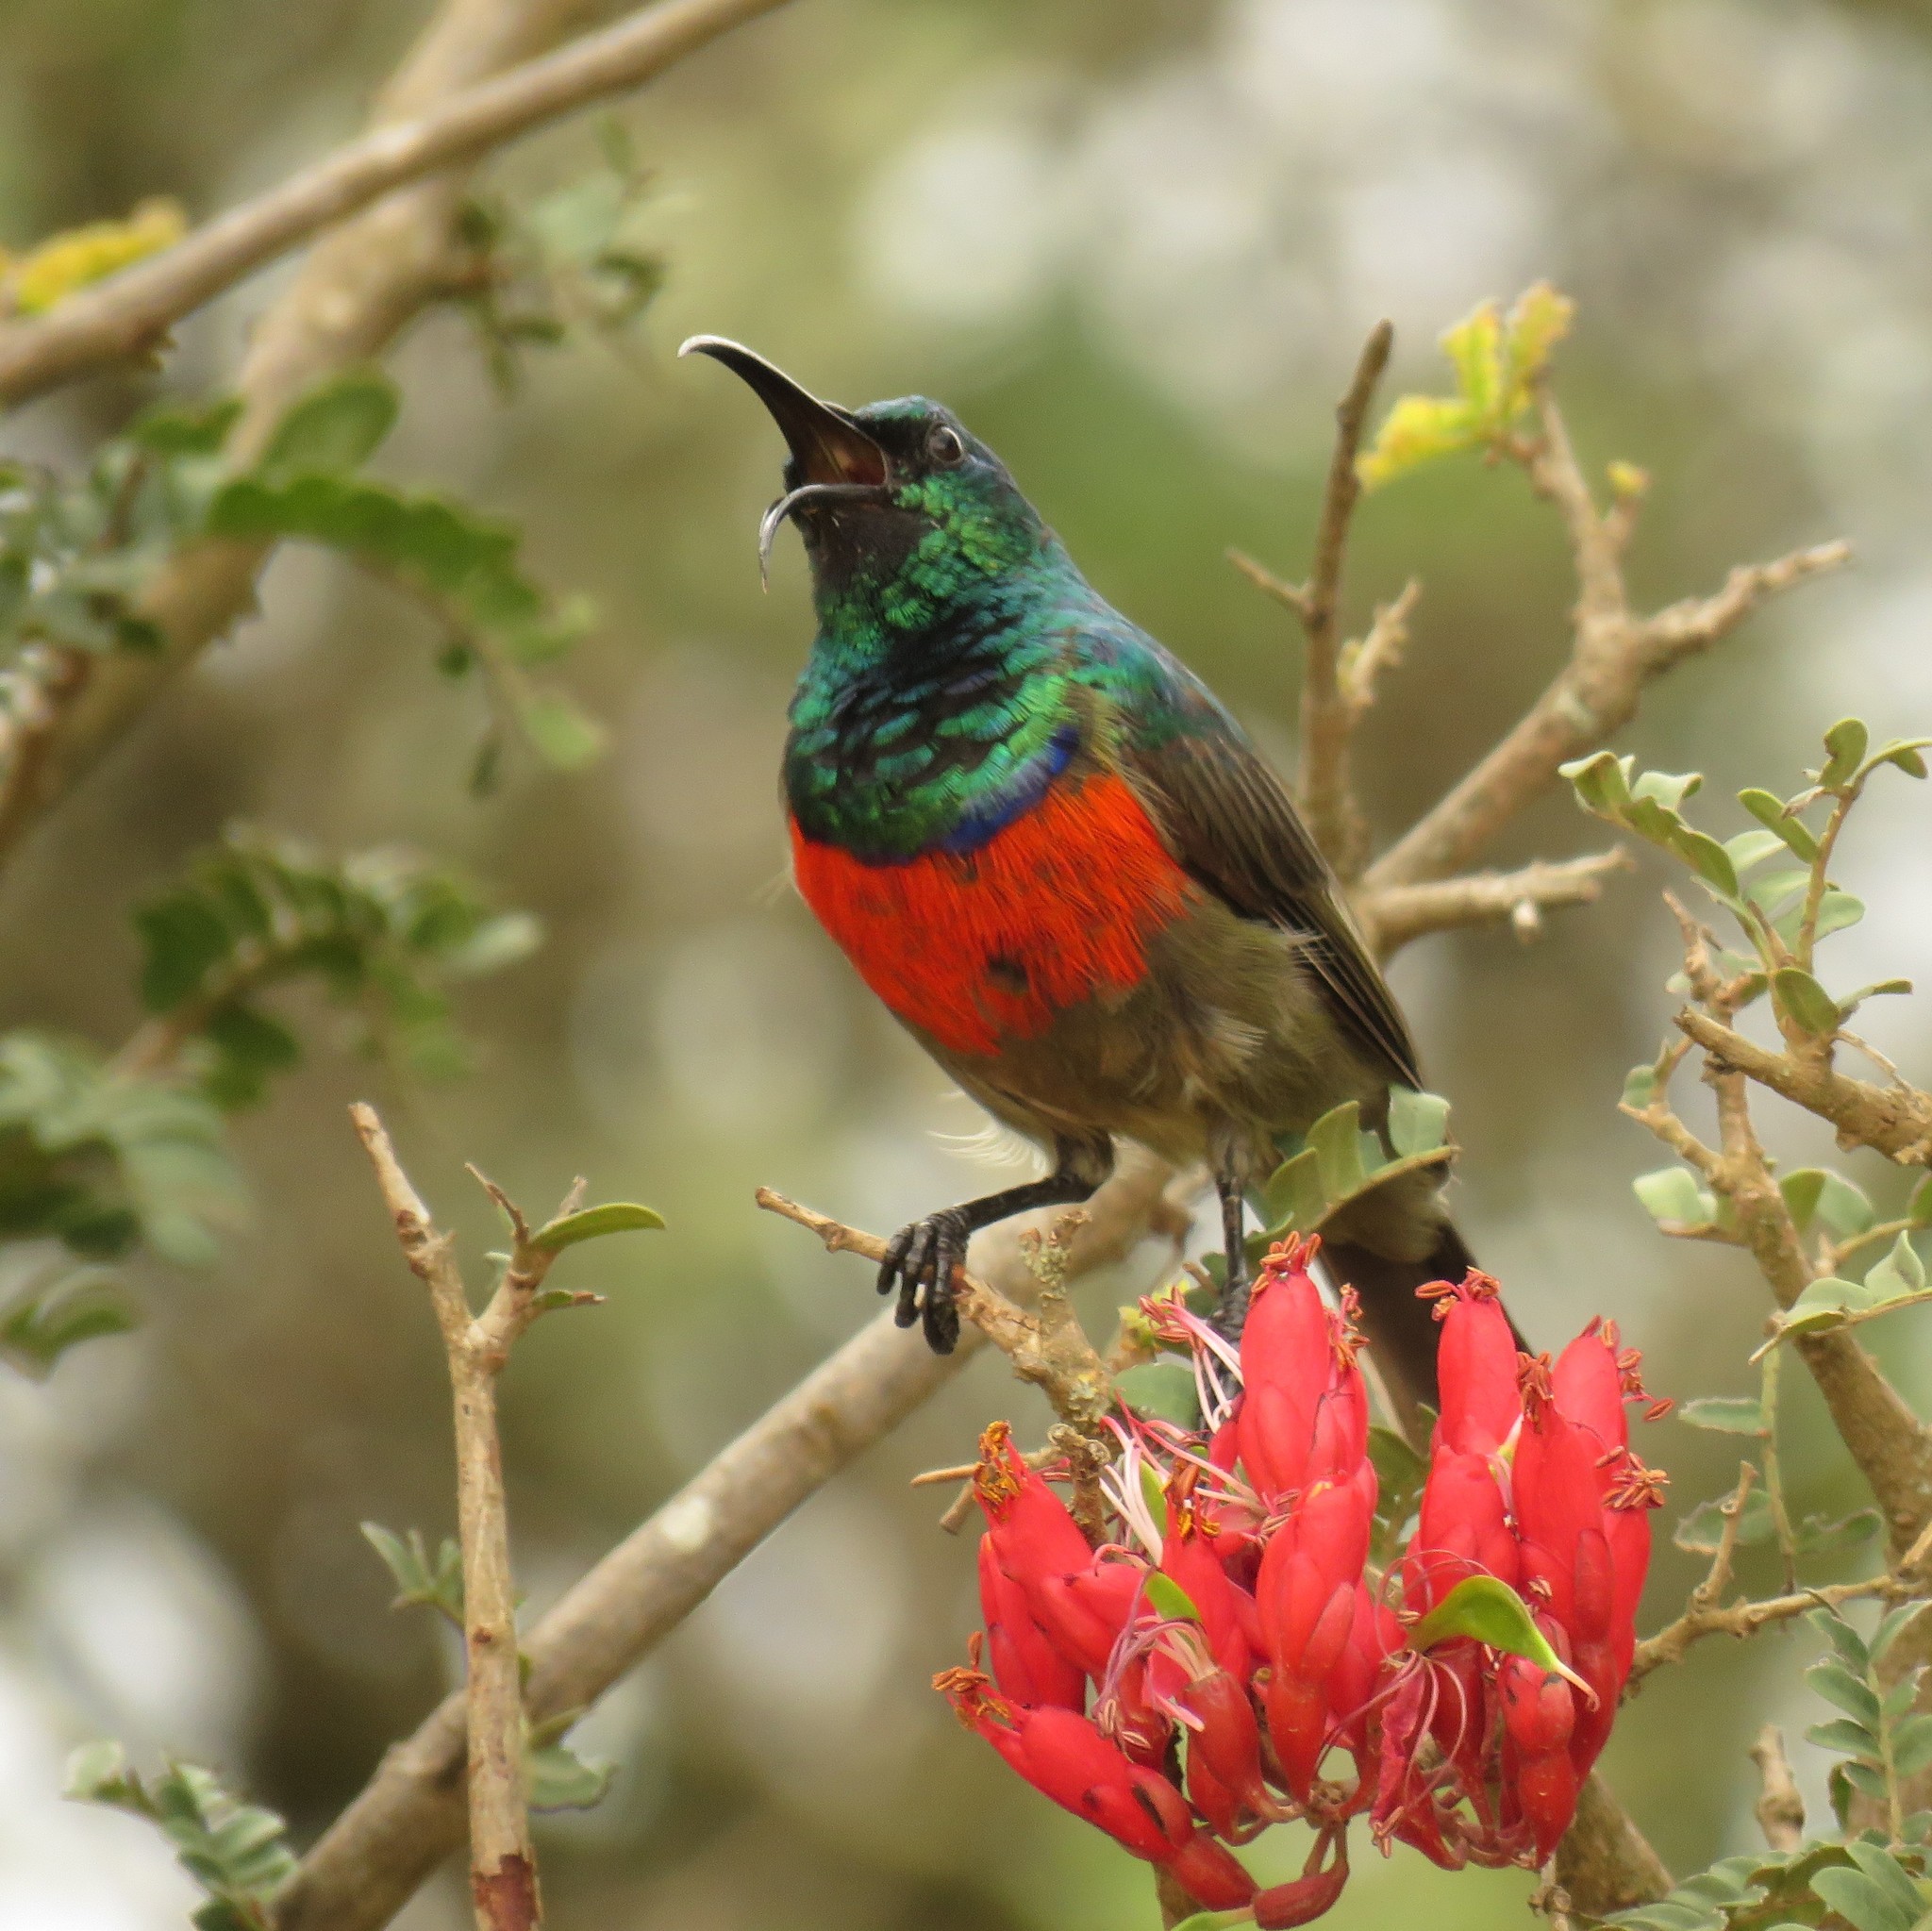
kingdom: Animalia
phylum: Chordata
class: Aves
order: Passeriformes
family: Nectariniidae
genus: Cinnyris
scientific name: Cinnyris afer
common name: Greater double-collared sunbird
